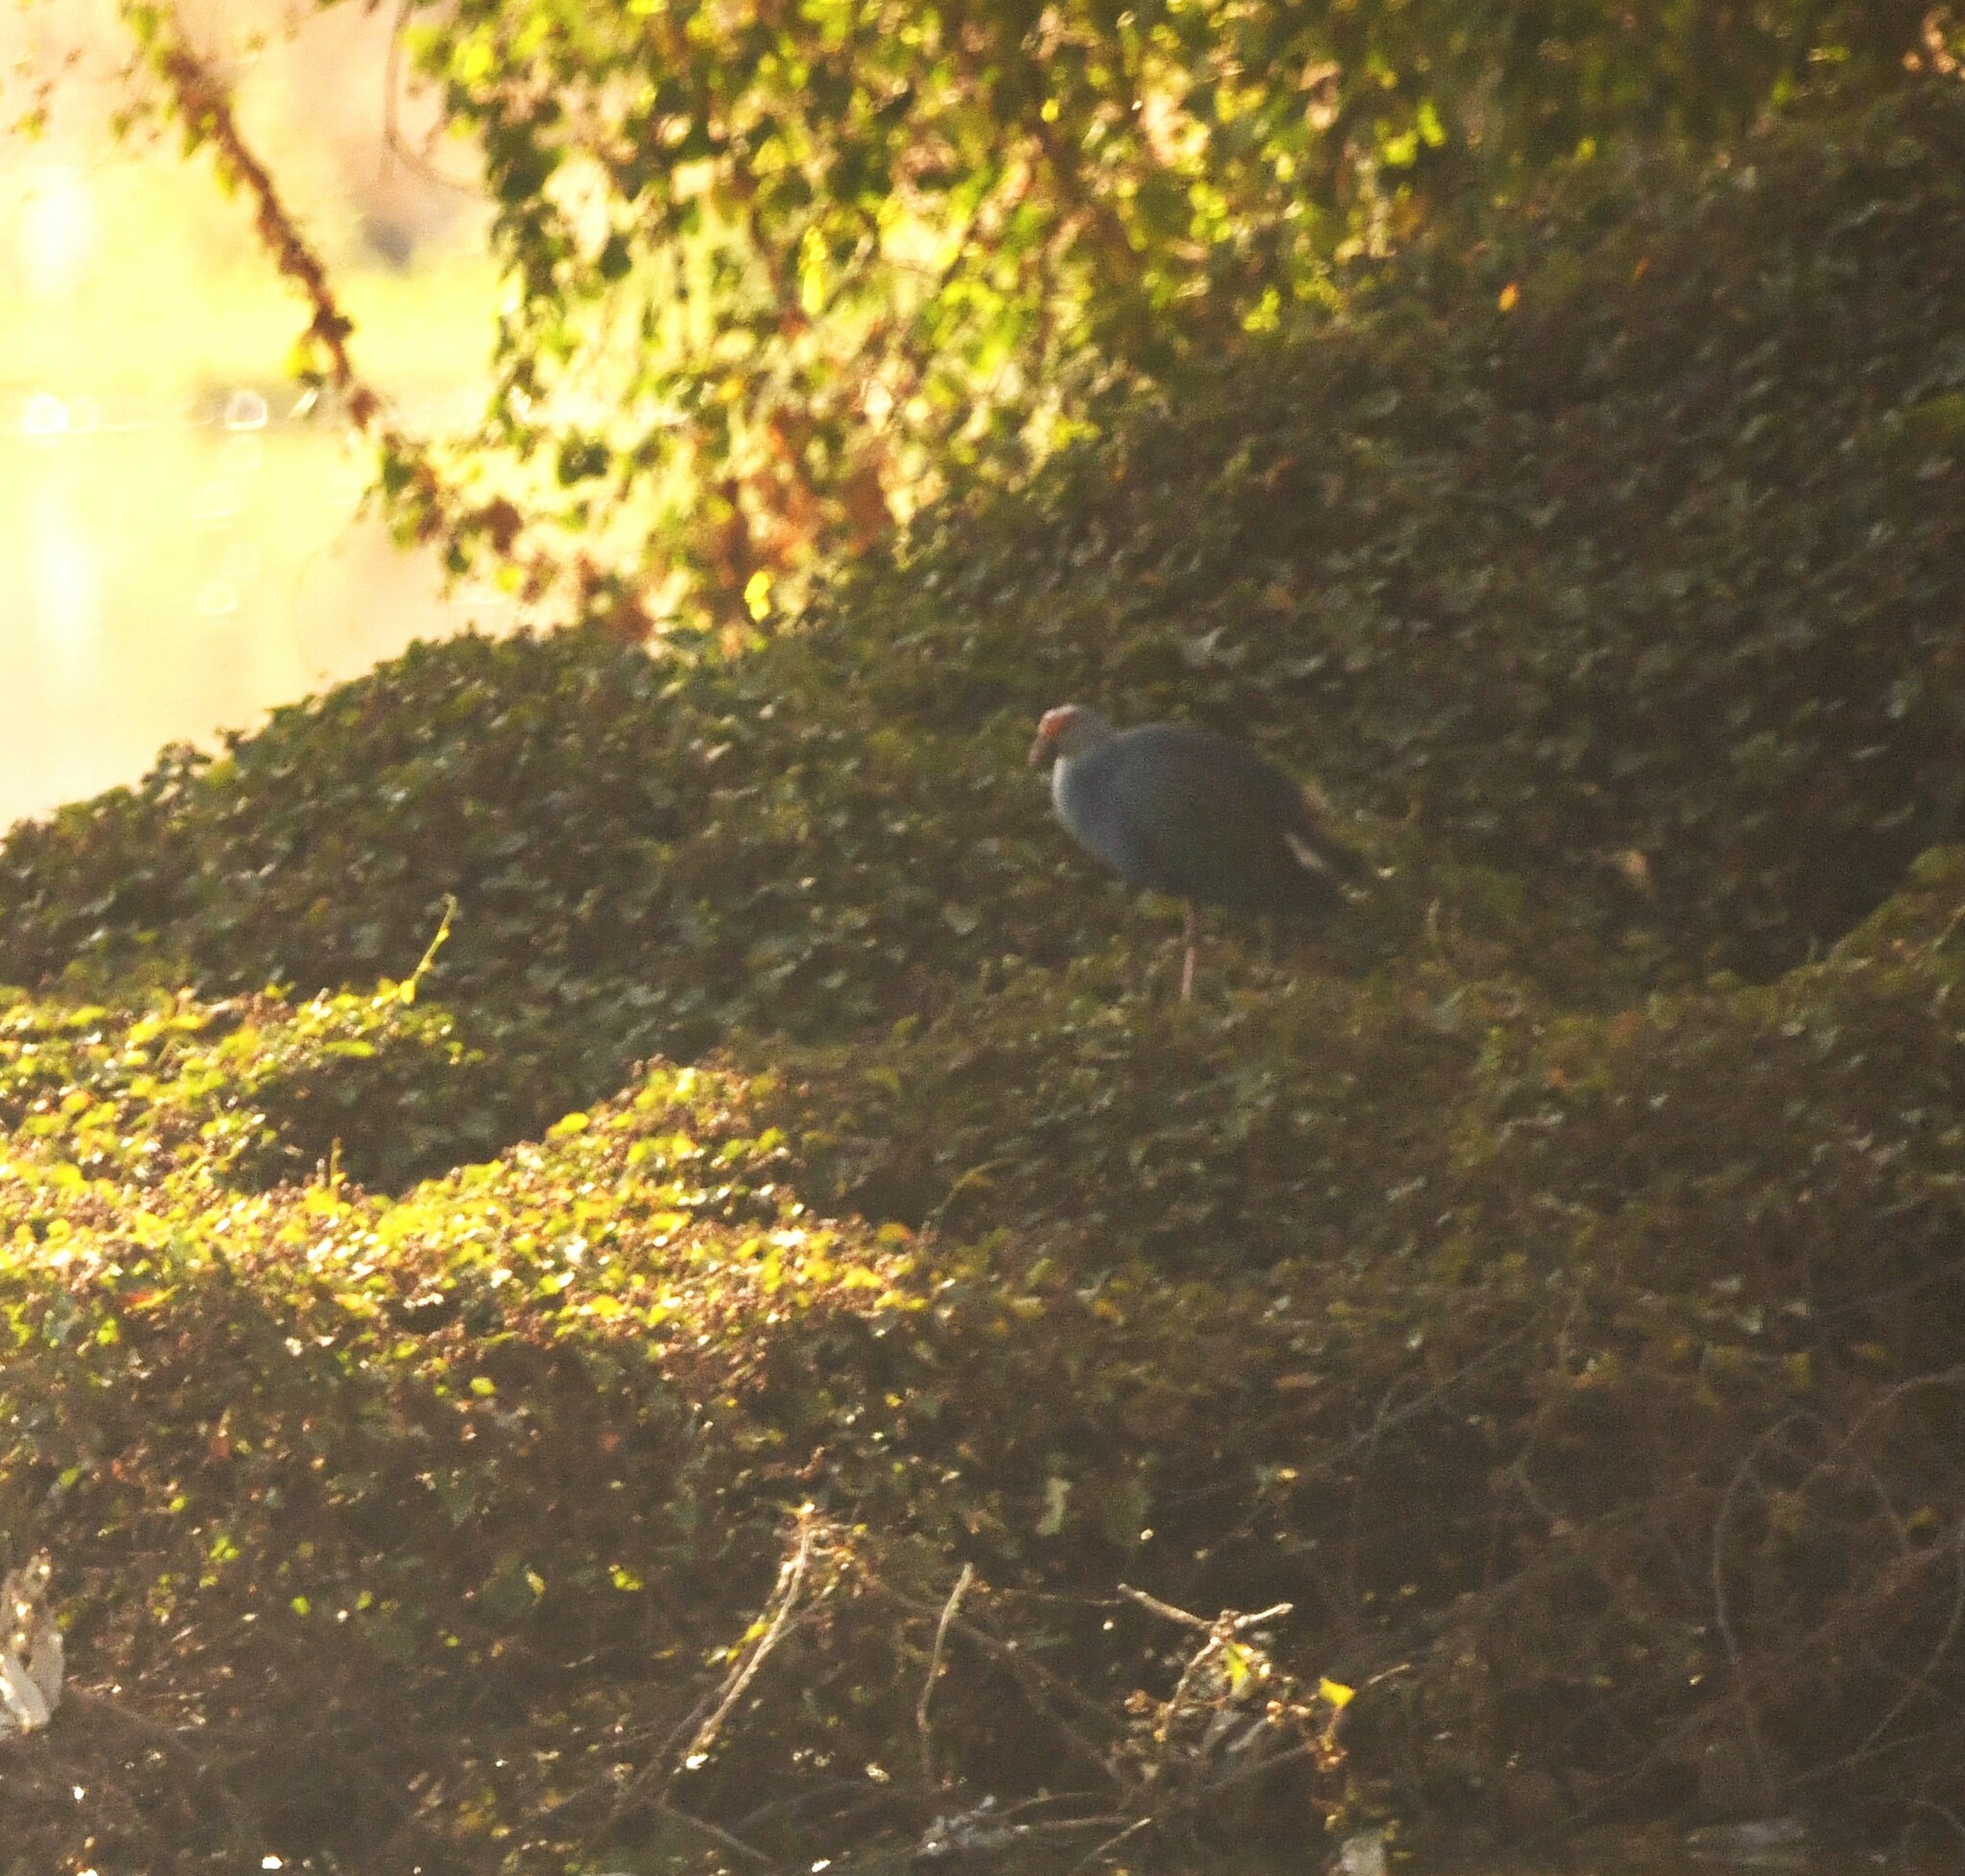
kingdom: Animalia
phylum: Chordata
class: Aves
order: Gruiformes
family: Rallidae
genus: Porphyrio
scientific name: Porphyrio porphyrio
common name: Purple swamphen
